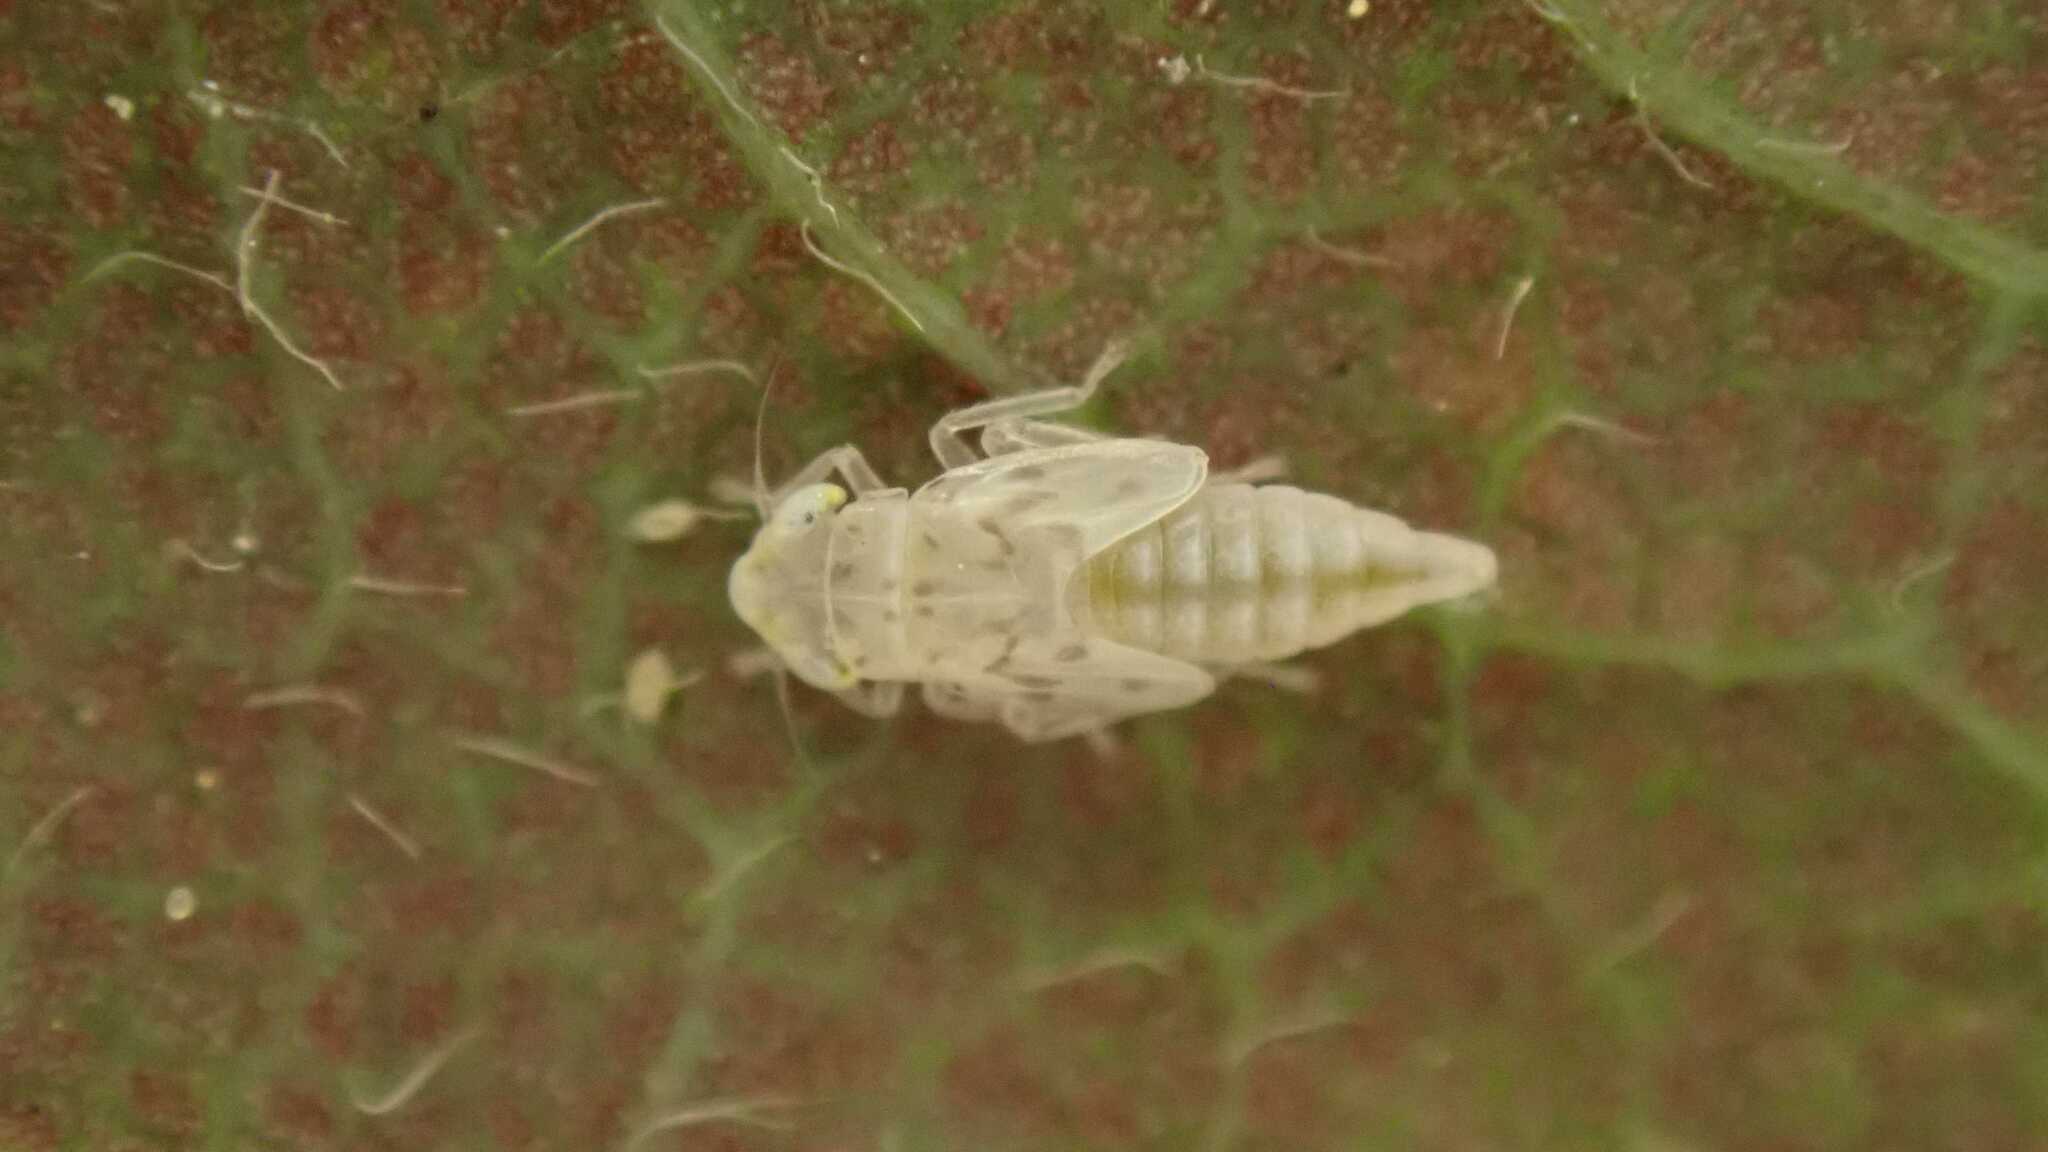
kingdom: Animalia
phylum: Arthropoda
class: Insecta
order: Hemiptera
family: Cicadellidae
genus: Zyginella
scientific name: Zyginella pulchra
